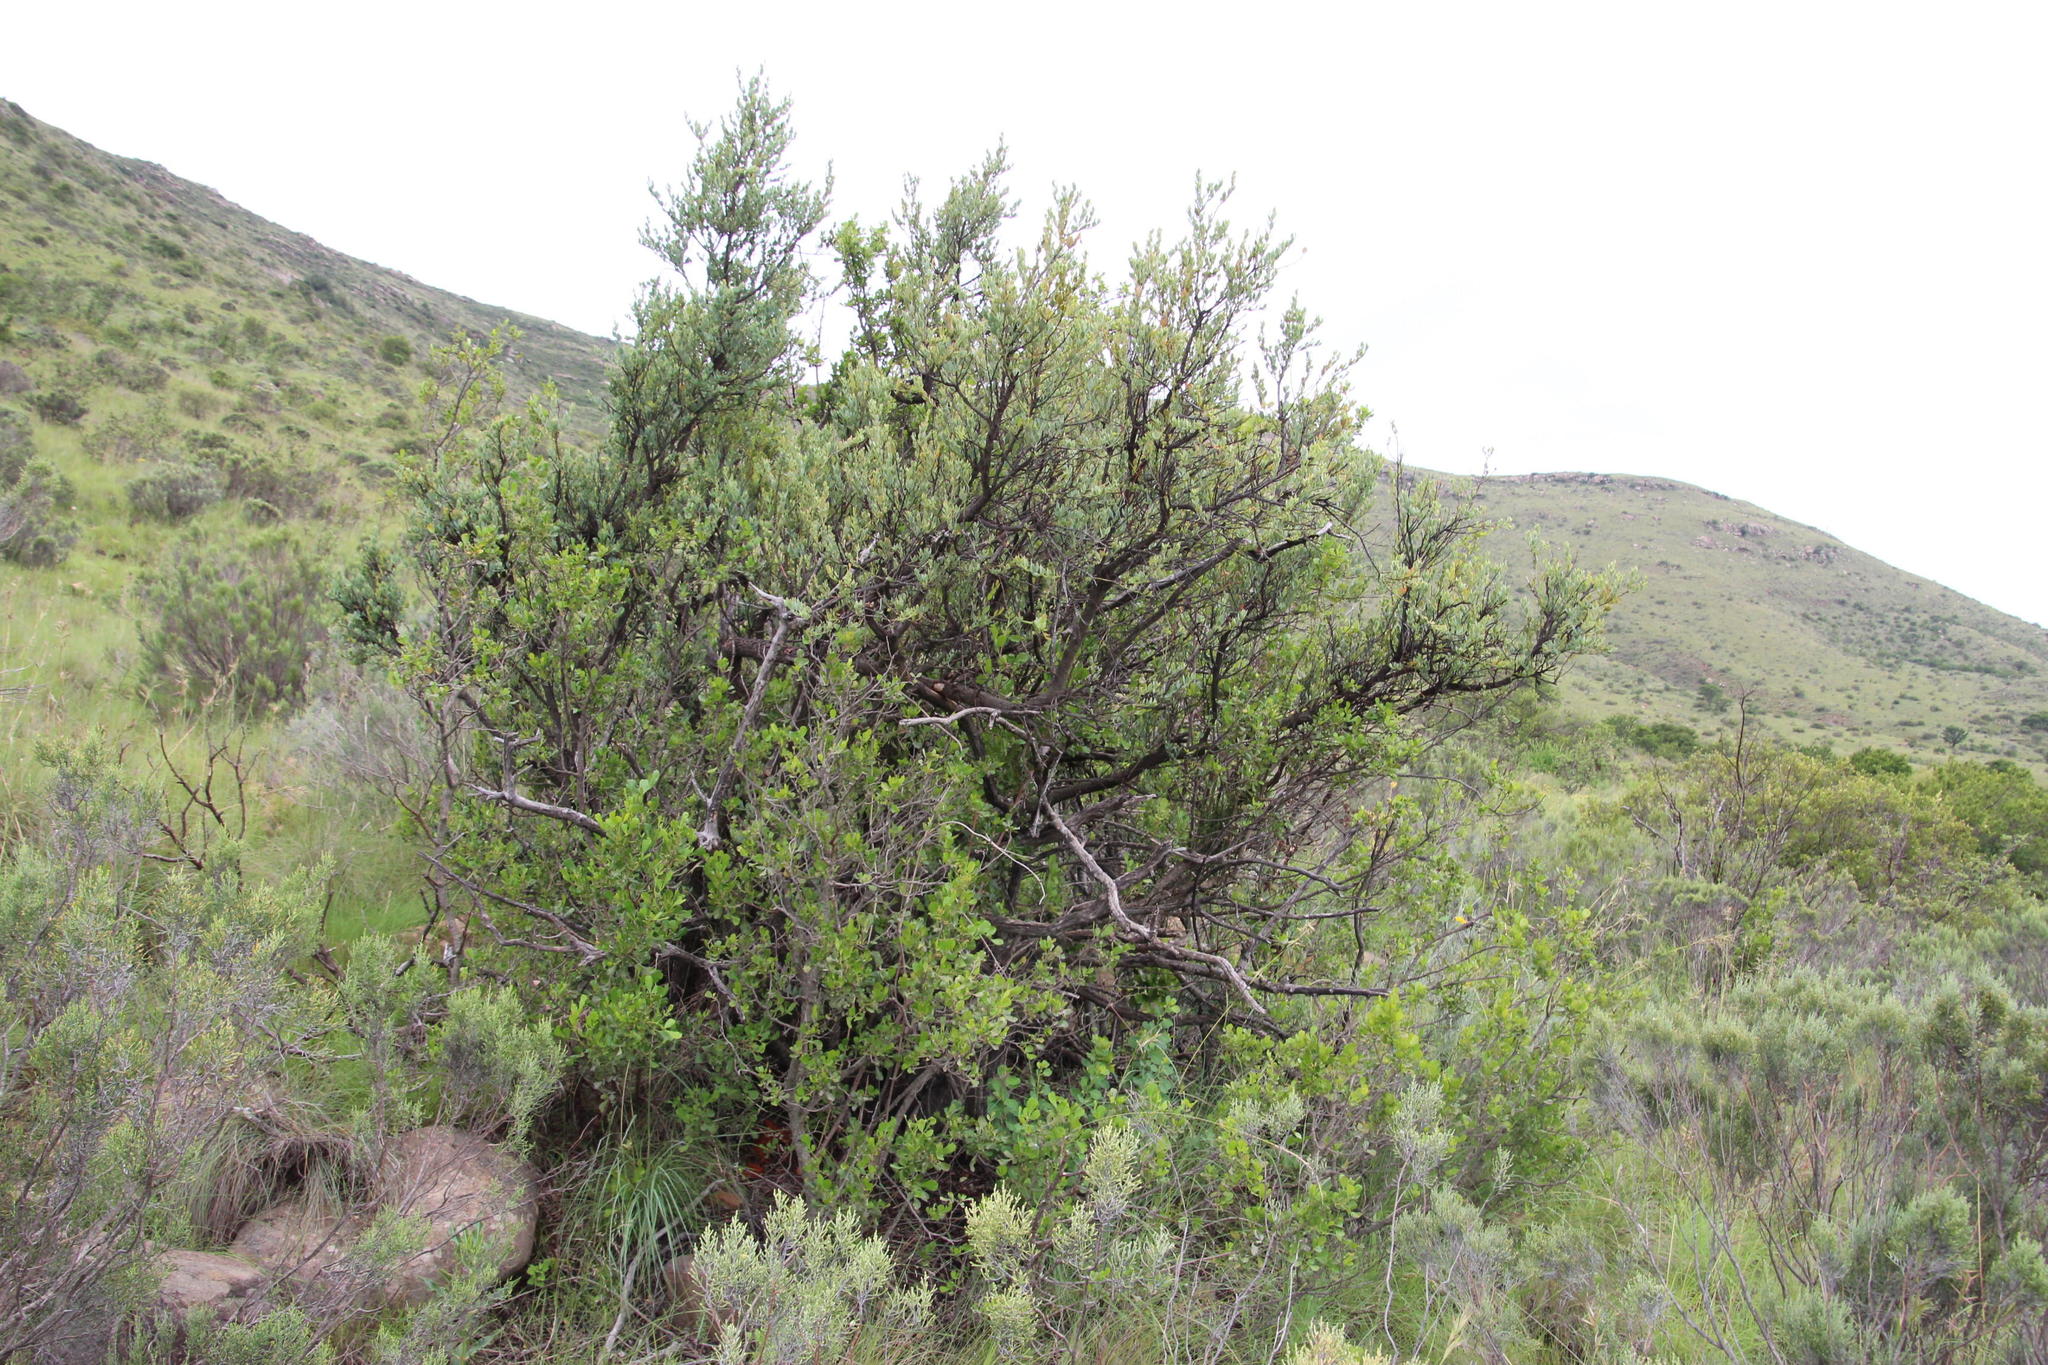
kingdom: Plantae
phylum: Tracheophyta
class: Magnoliopsida
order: Sapindales
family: Anacardiaceae
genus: Searsia
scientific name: Searsia pallens
